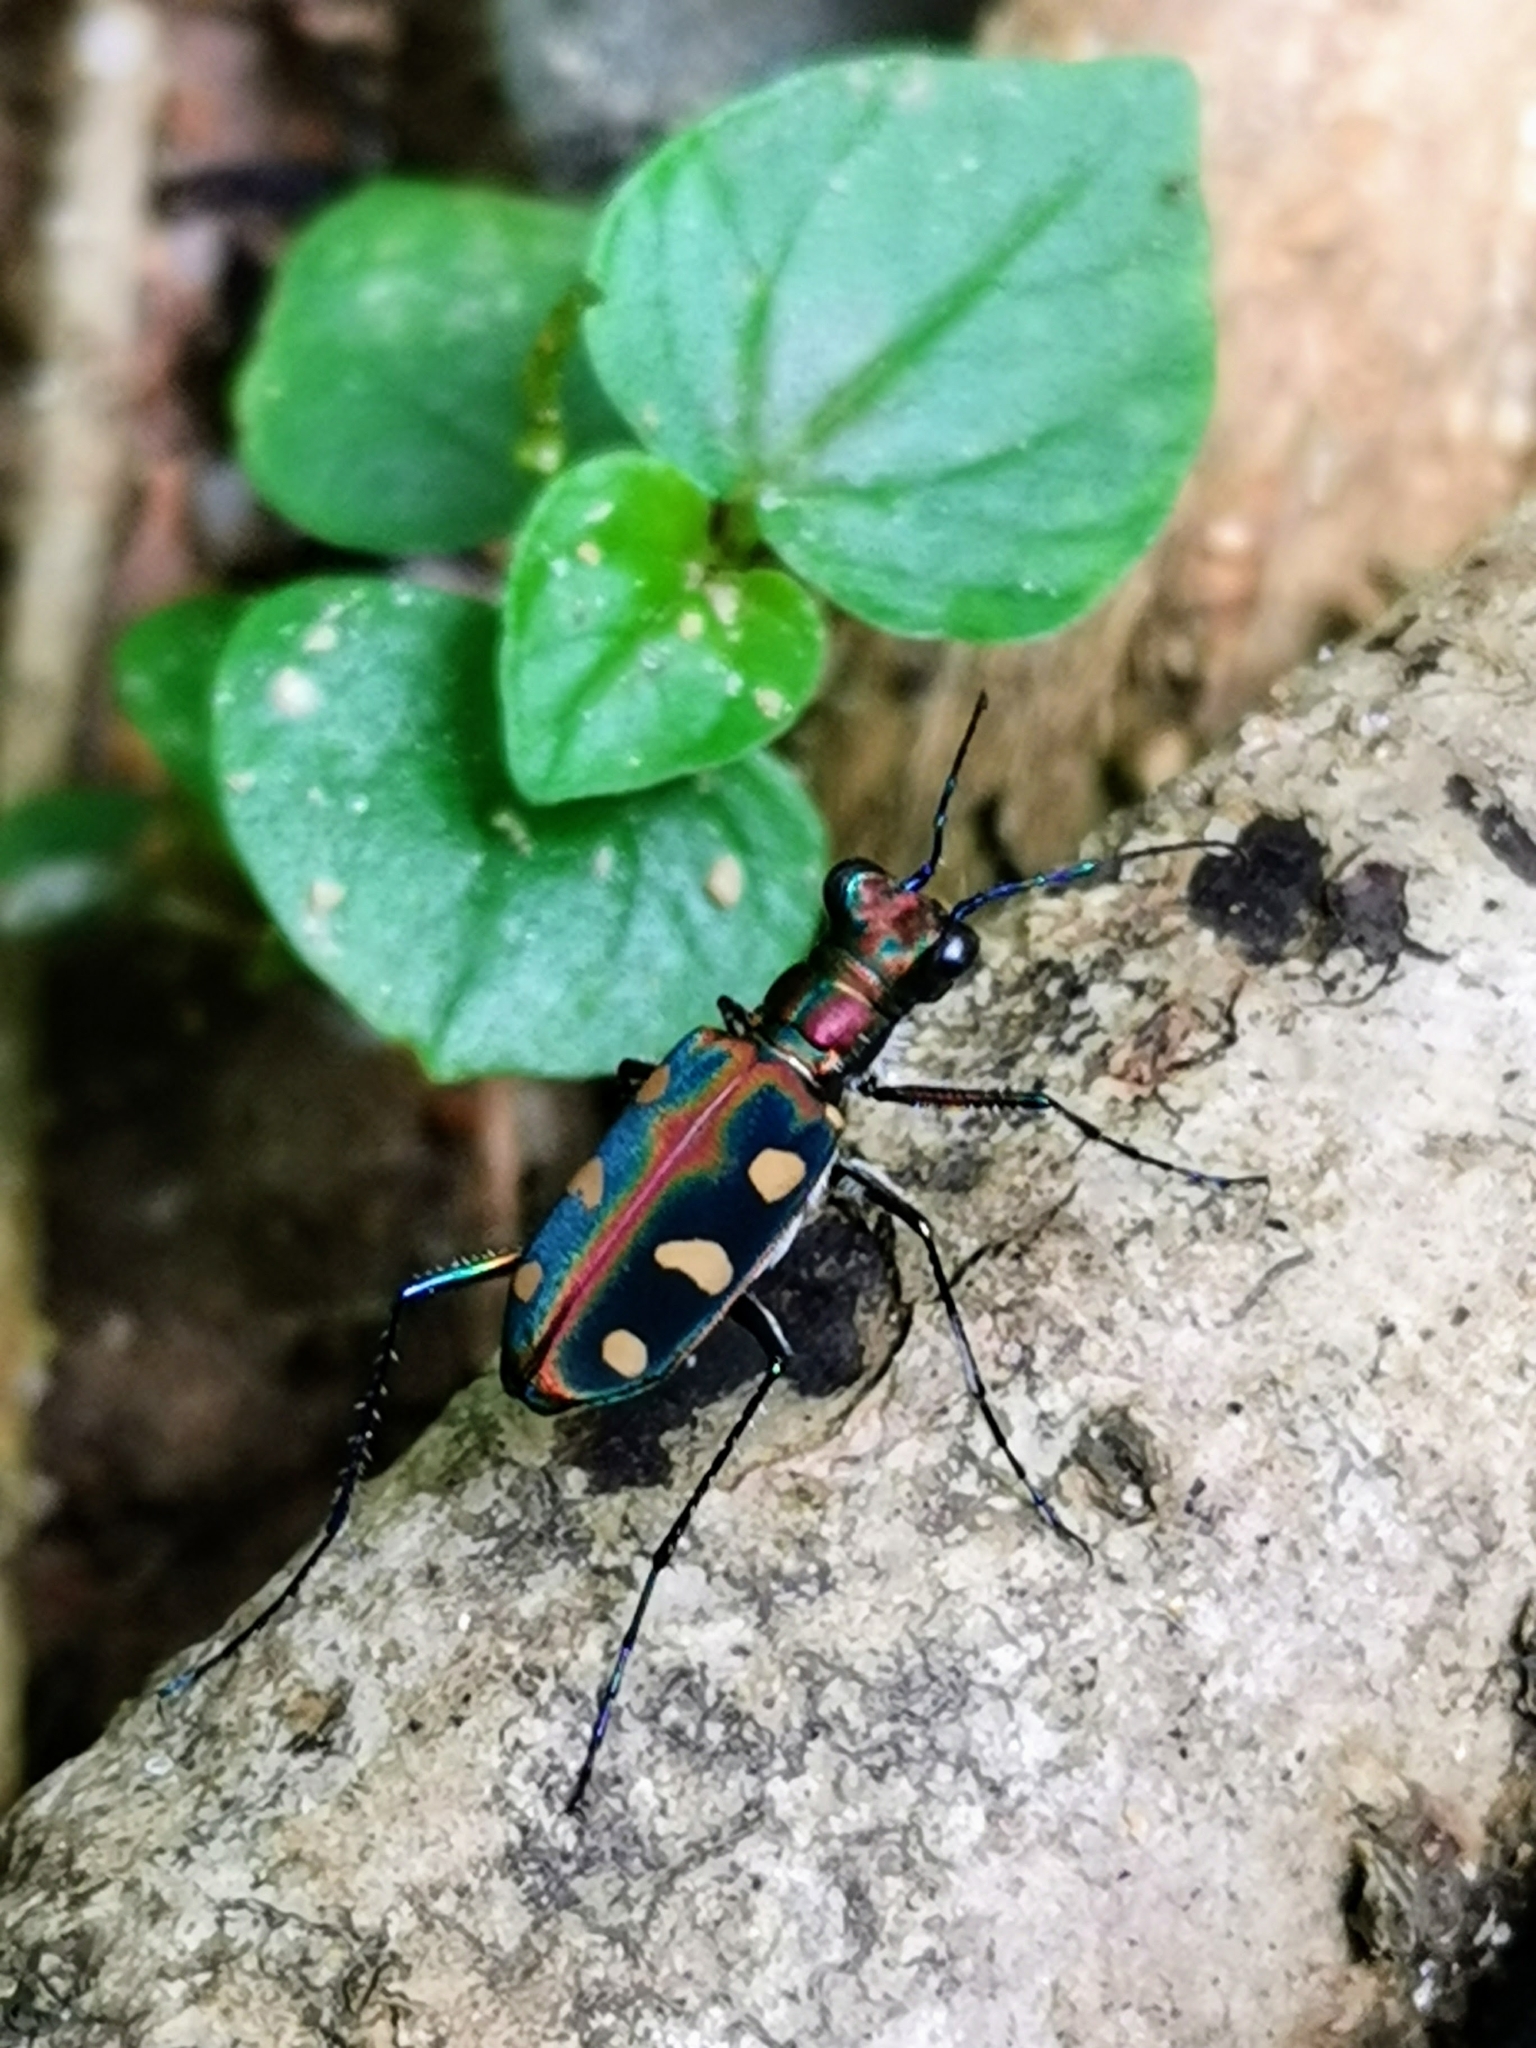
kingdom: Animalia
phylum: Arthropoda
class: Insecta
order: Coleoptera
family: Carabidae
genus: Cicindela
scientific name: Cicindela aurulenta
